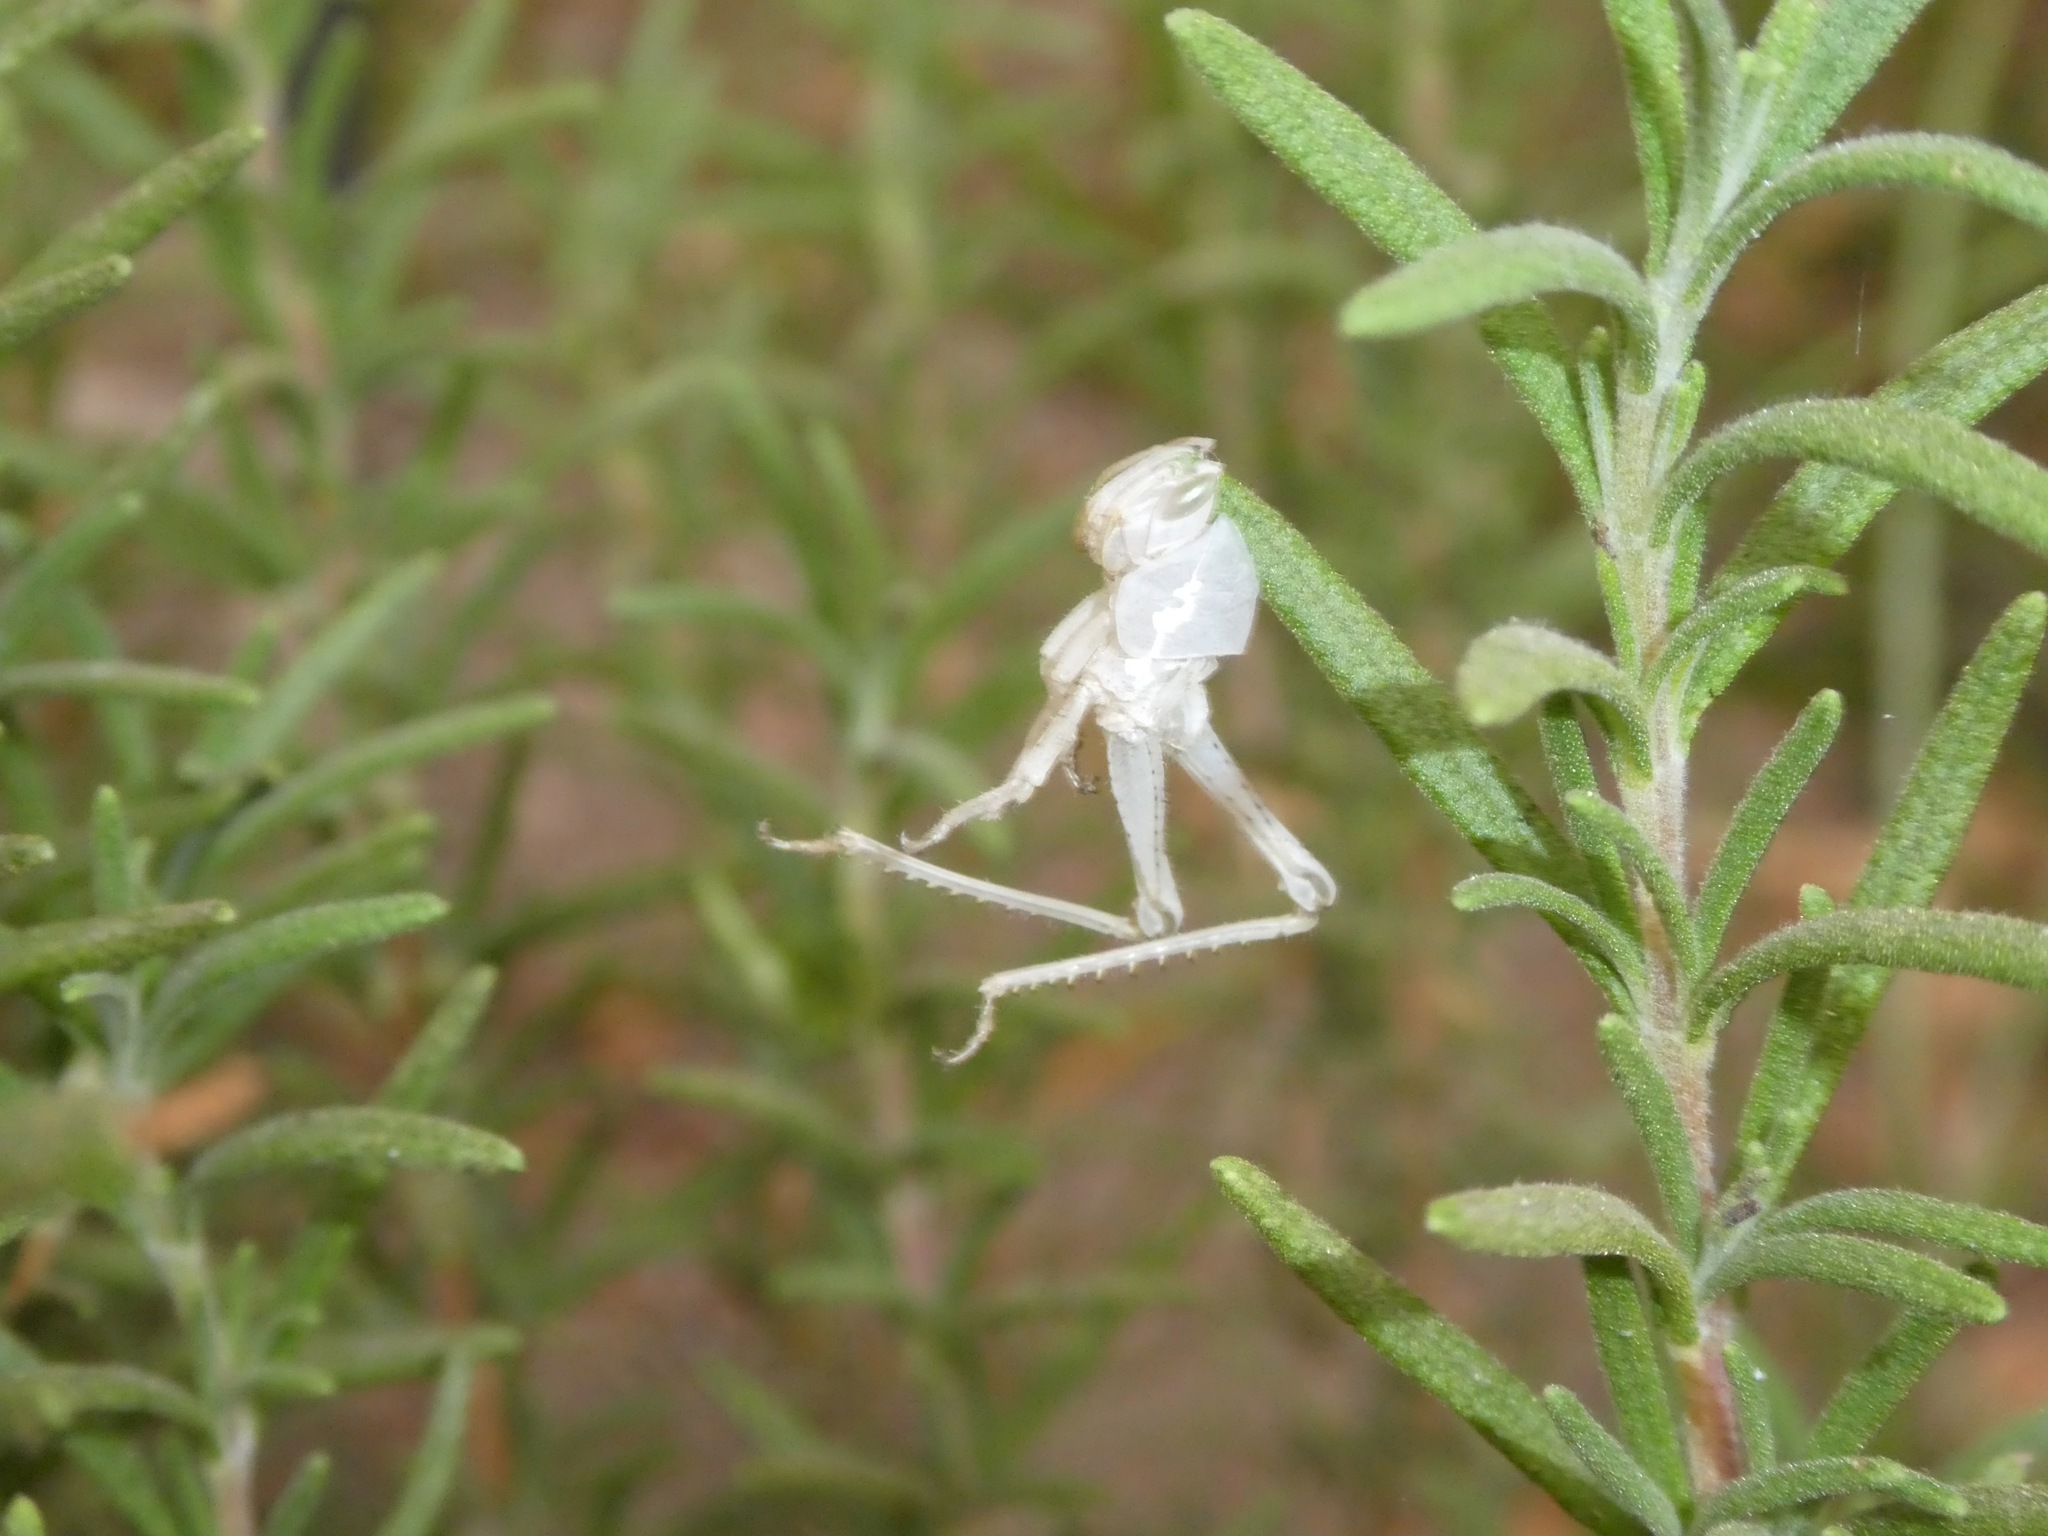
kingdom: Animalia
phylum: Arthropoda
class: Insecta
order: Orthoptera
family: Acrididae
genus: Schistocerca
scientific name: Schistocerca nitens
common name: Vagrant grasshopper
